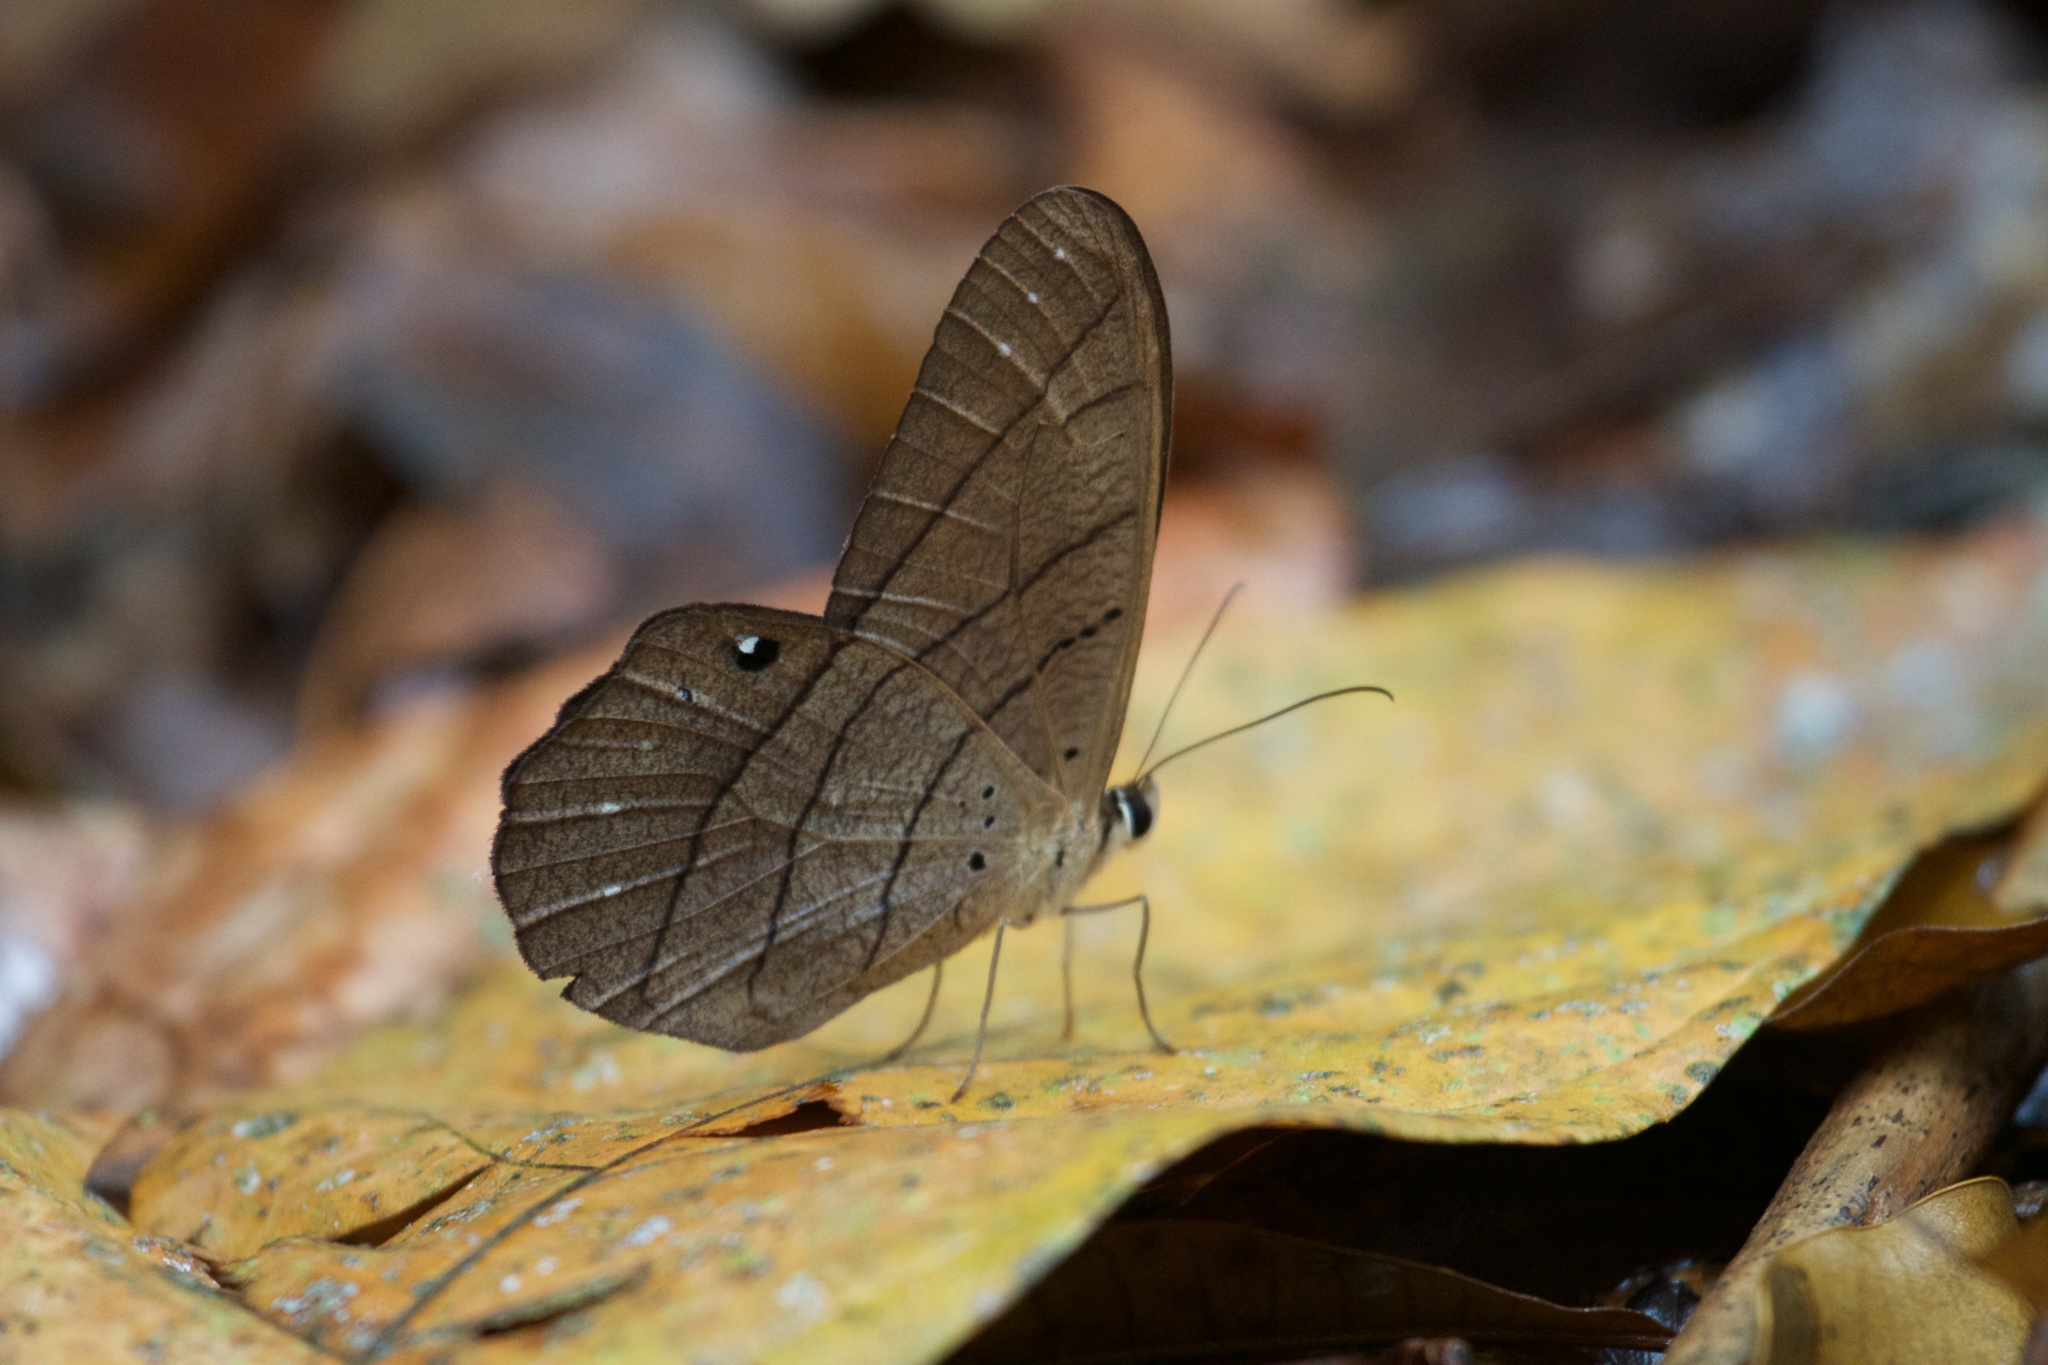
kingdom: Animalia
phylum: Arthropoda
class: Insecta
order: Lepidoptera
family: Nymphalidae
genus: Pierella
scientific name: Pierella lena
